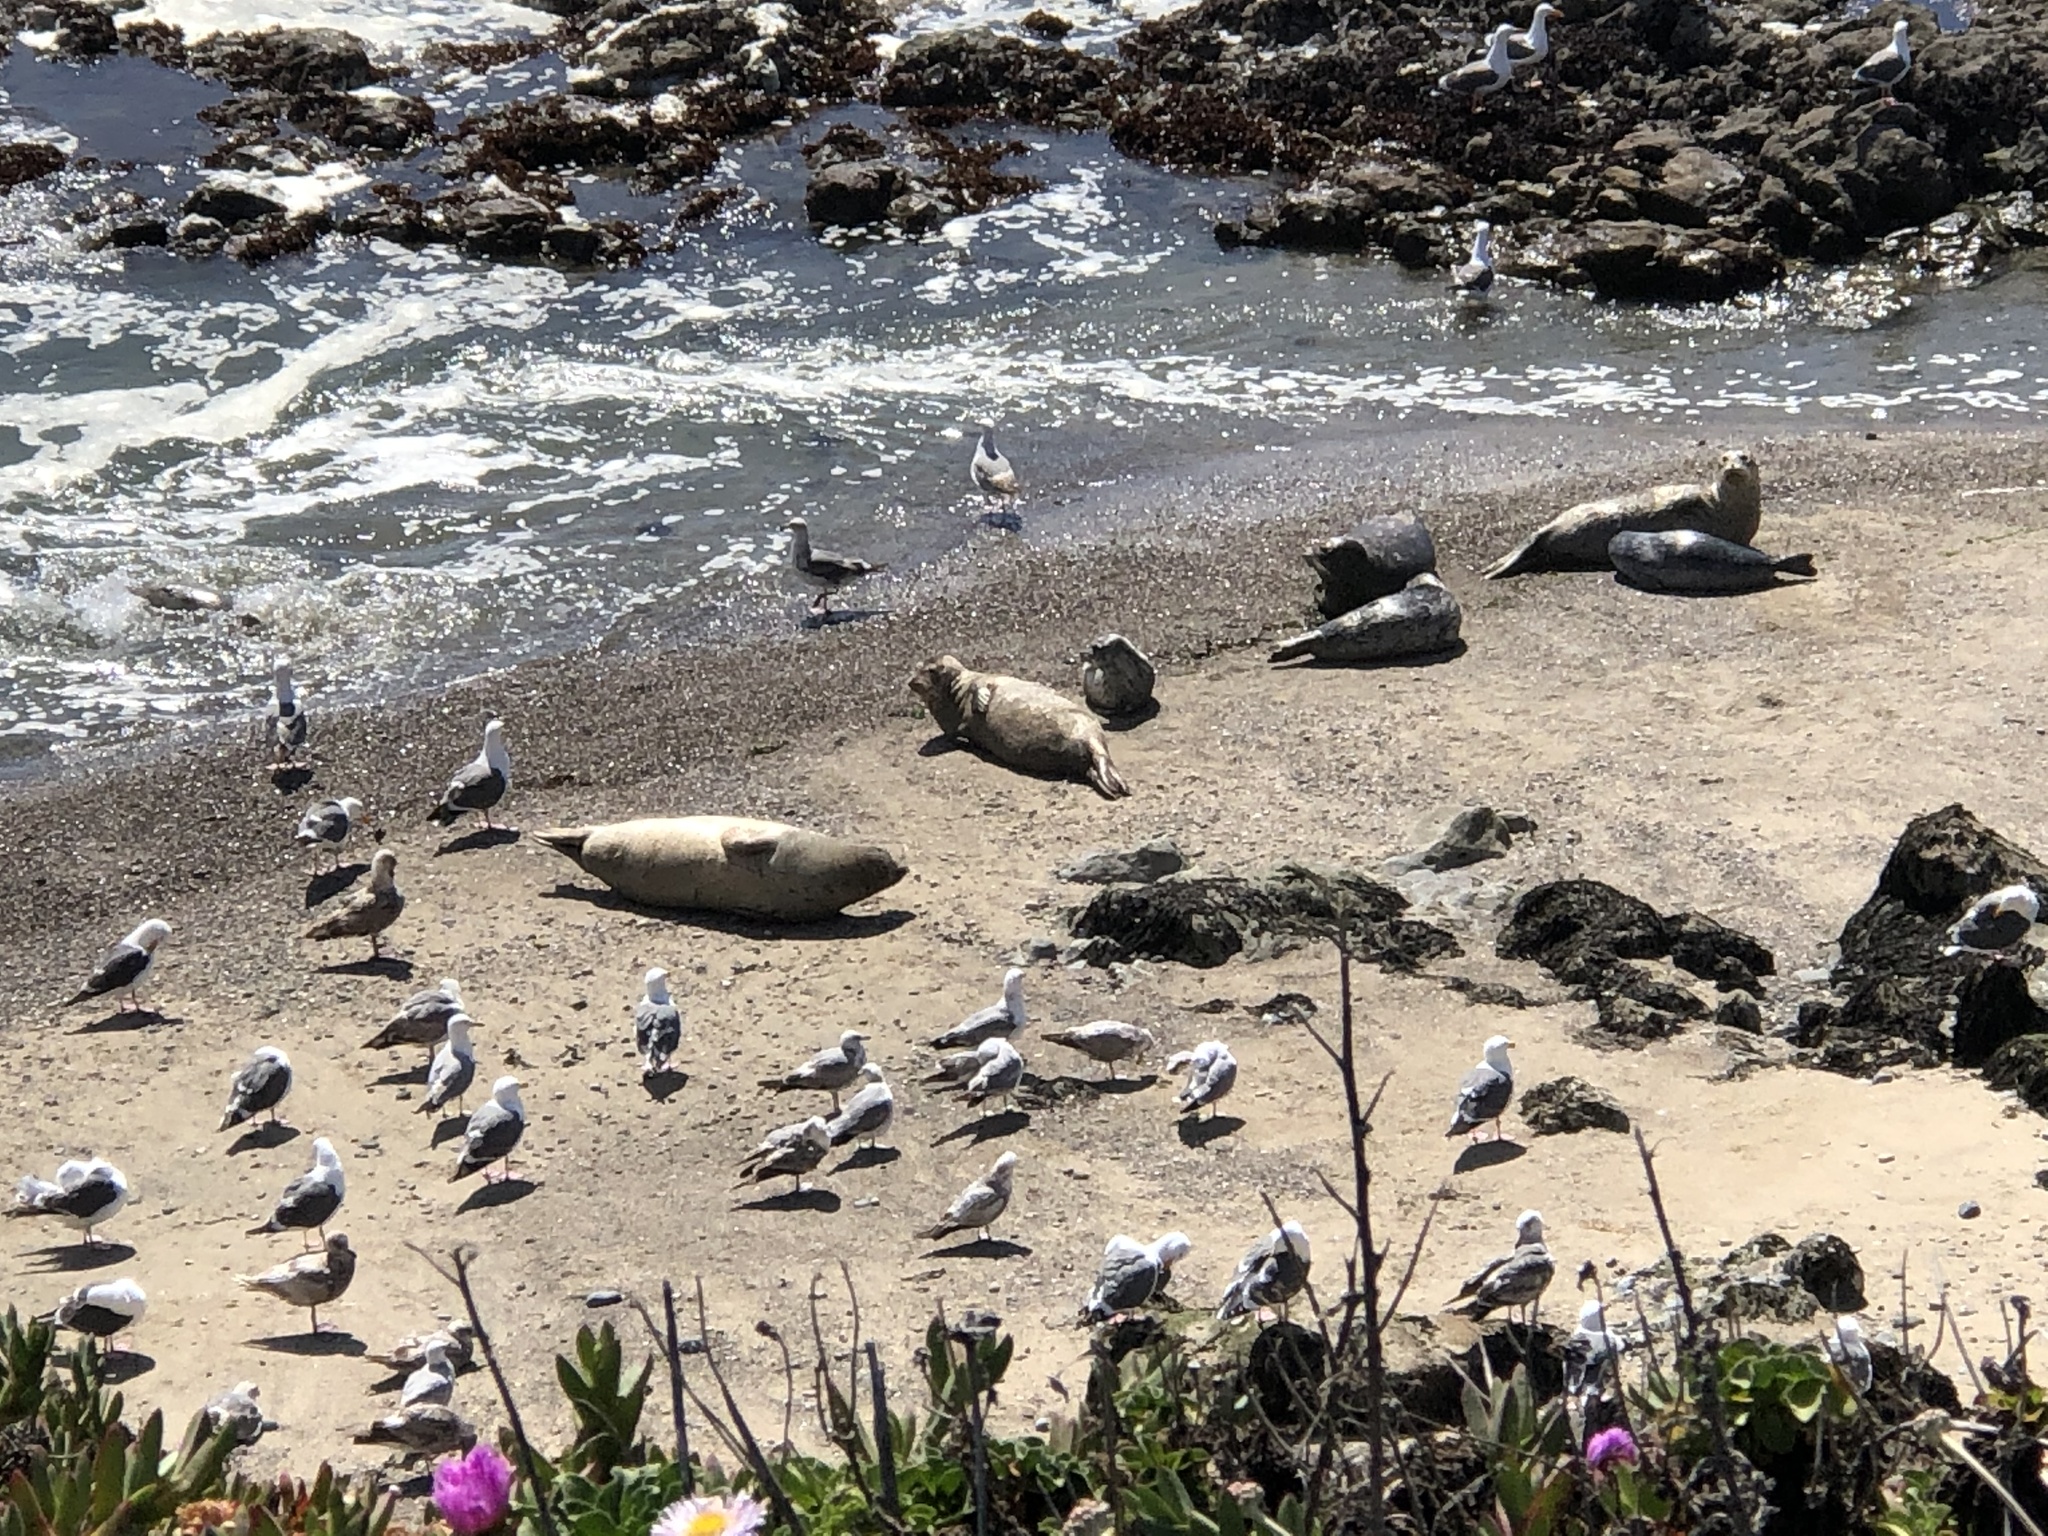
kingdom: Animalia
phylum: Chordata
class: Mammalia
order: Carnivora
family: Phocidae
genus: Phoca
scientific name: Phoca vitulina
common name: Harbor seal
